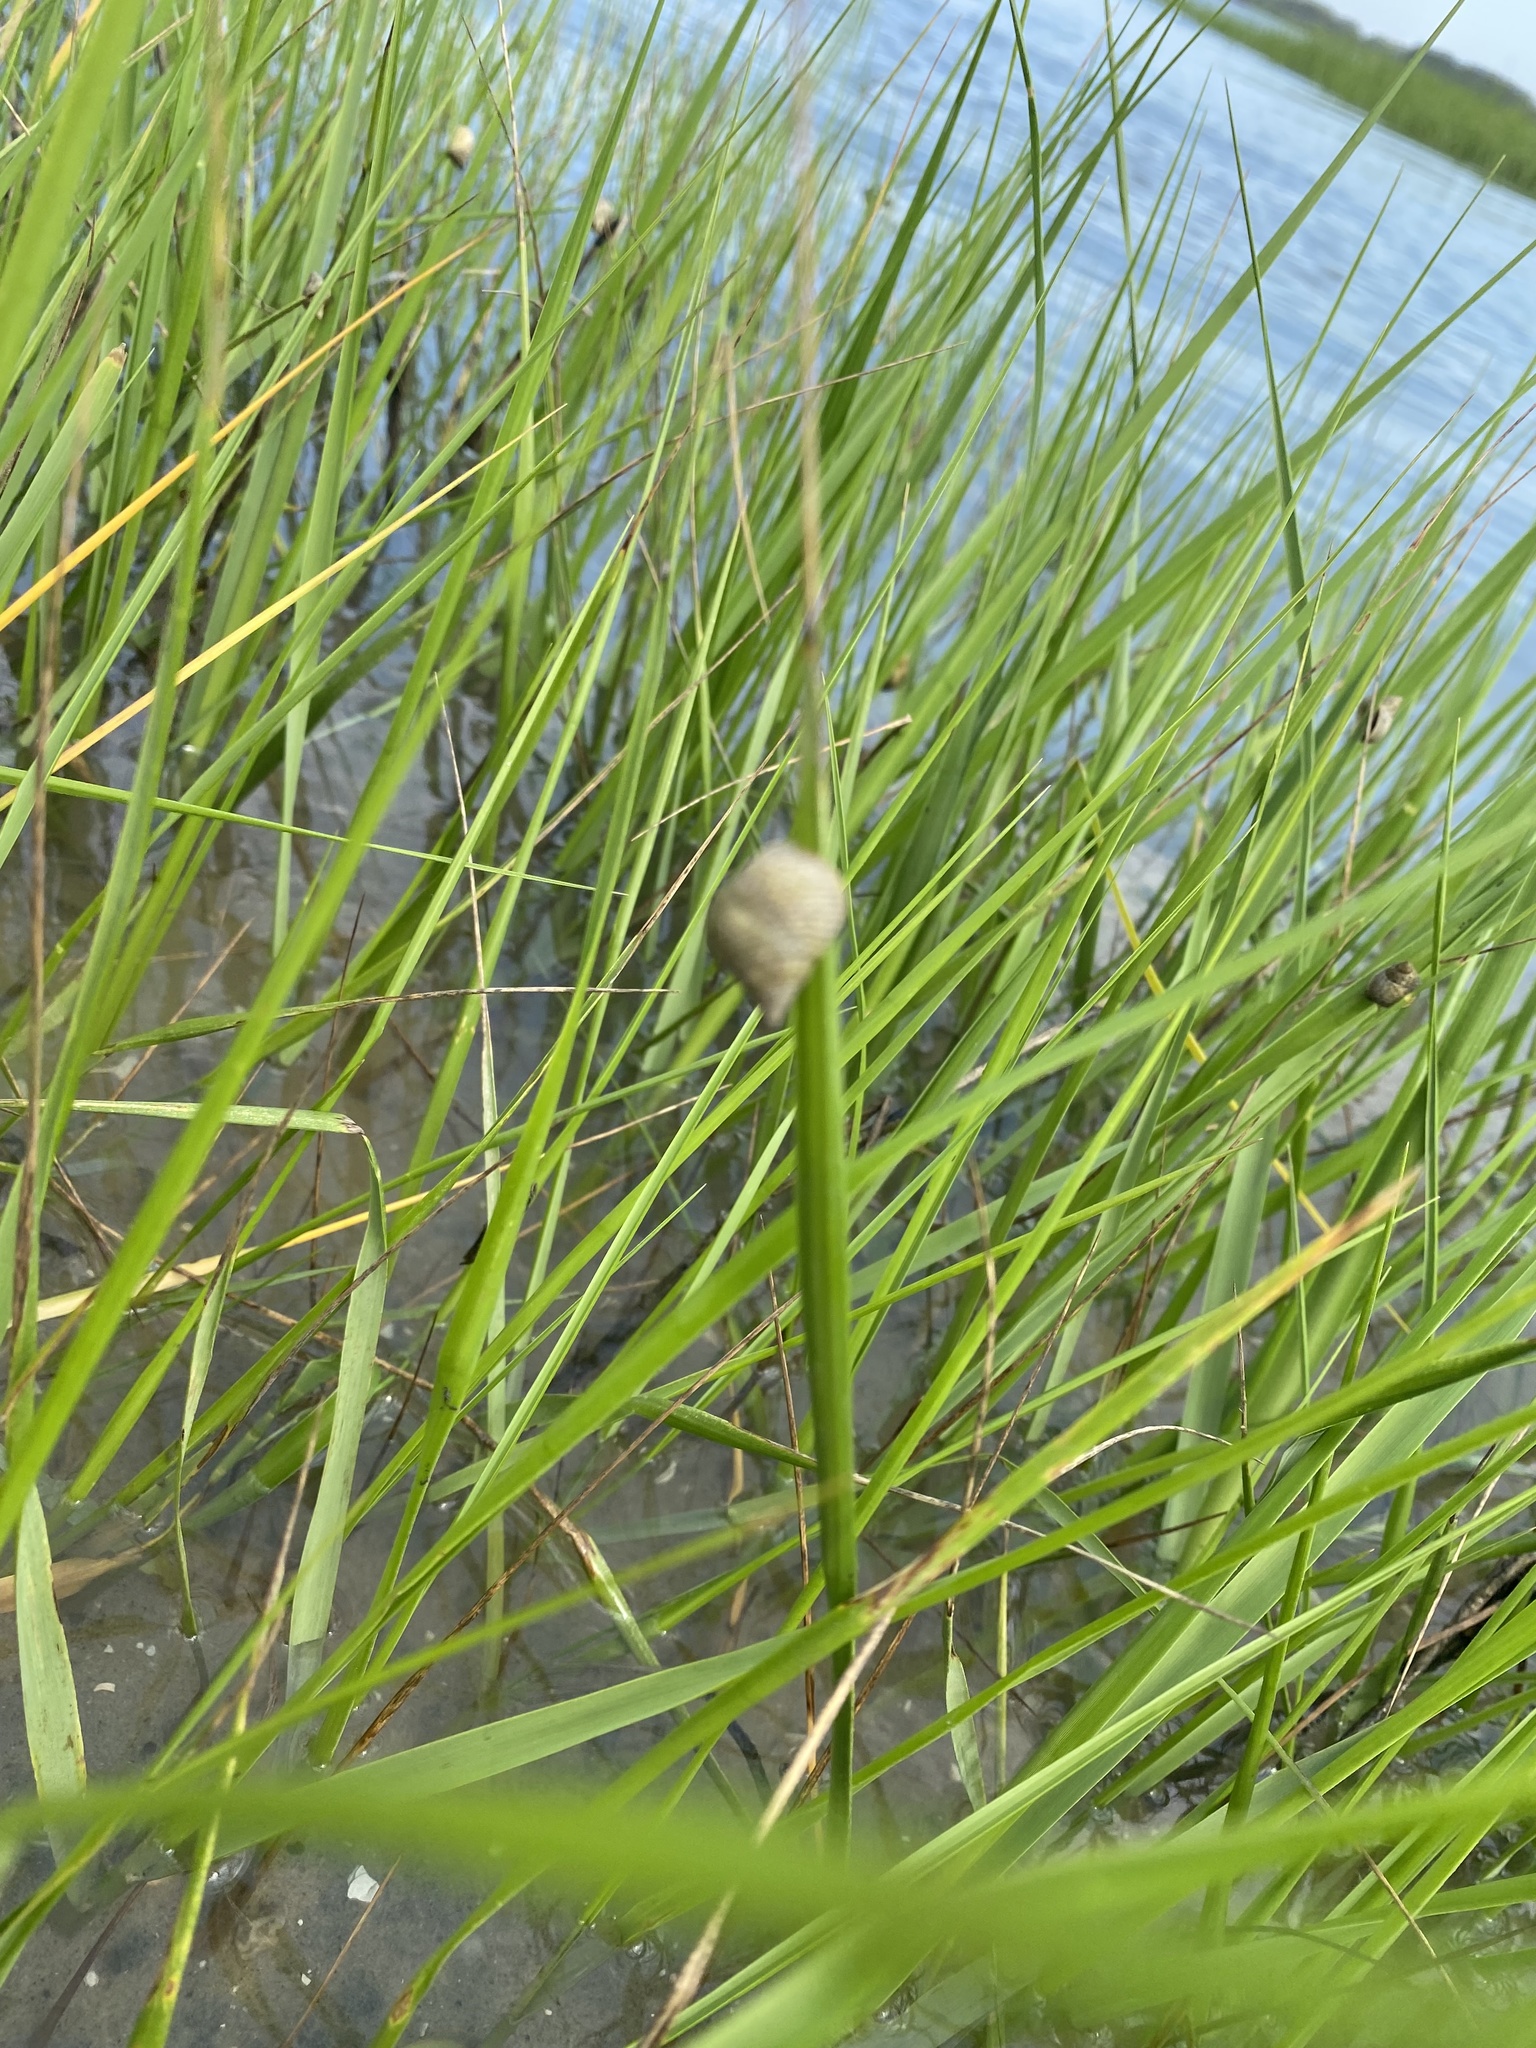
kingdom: Animalia
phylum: Mollusca
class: Gastropoda
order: Littorinimorpha
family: Littorinidae
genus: Littoraria
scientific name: Littoraria irrorata
